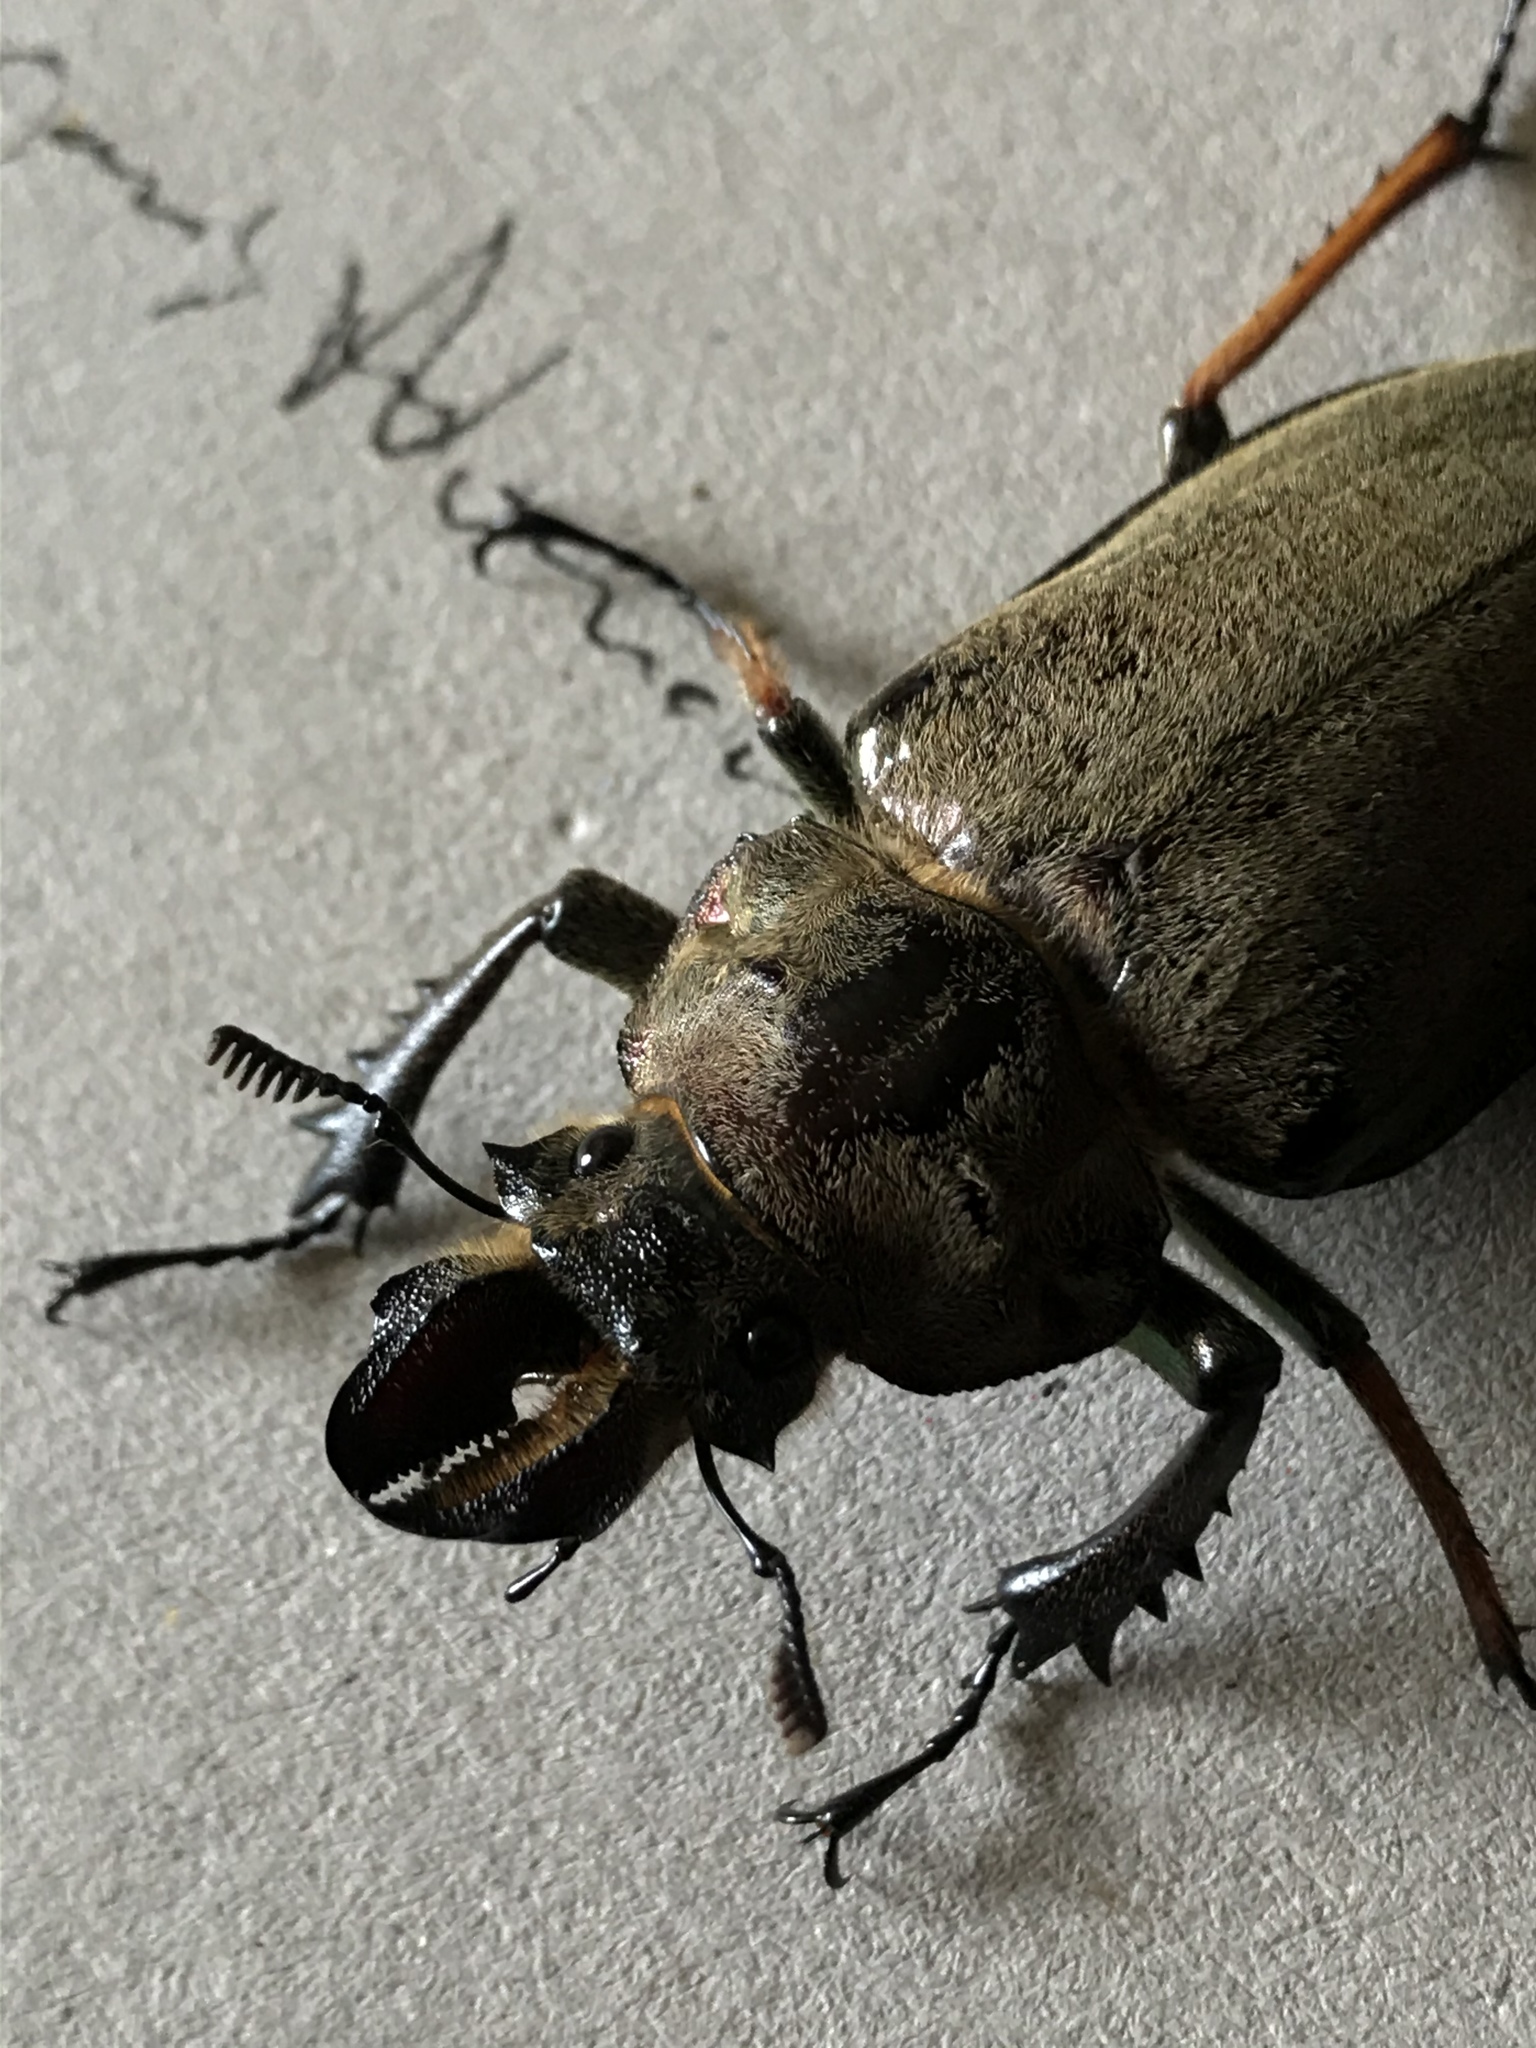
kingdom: Animalia
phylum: Arthropoda
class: Insecta
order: Coleoptera
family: Lucanidae
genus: Sphaenognathus
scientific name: Sphaenognathus feisthamelii
